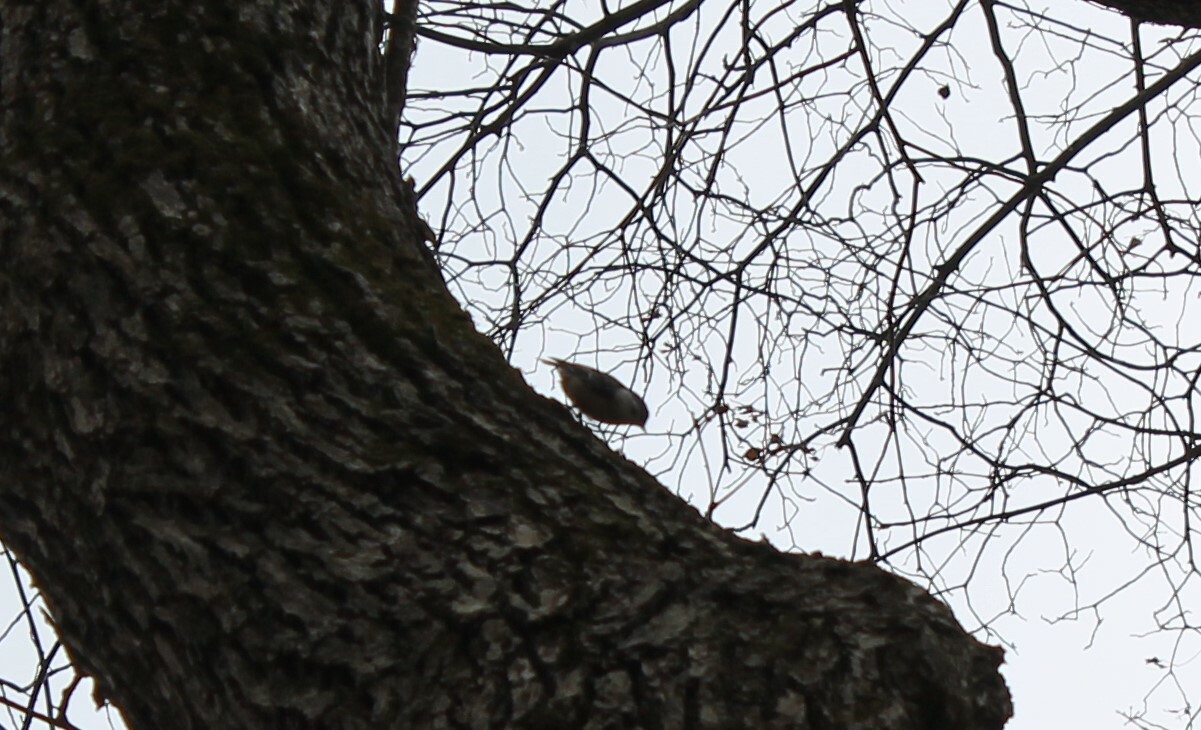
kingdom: Animalia
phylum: Chordata
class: Aves
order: Passeriformes
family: Sittidae
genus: Sitta
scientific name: Sitta carolinensis
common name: White-breasted nuthatch
